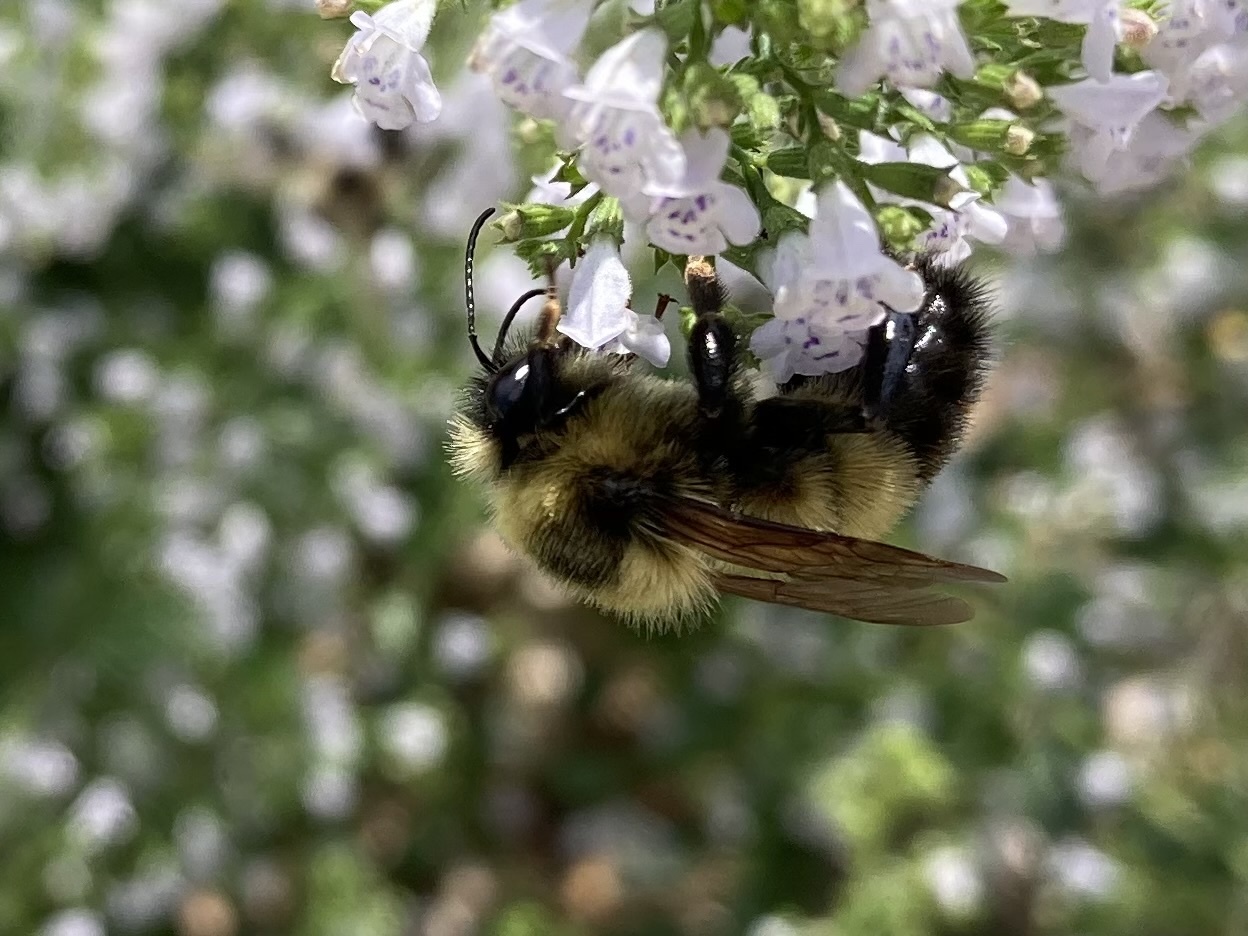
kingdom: Animalia
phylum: Arthropoda
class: Insecta
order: Hymenoptera
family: Apidae
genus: Bombus
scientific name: Bombus rufocinctus
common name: Red-belted bumble bee
